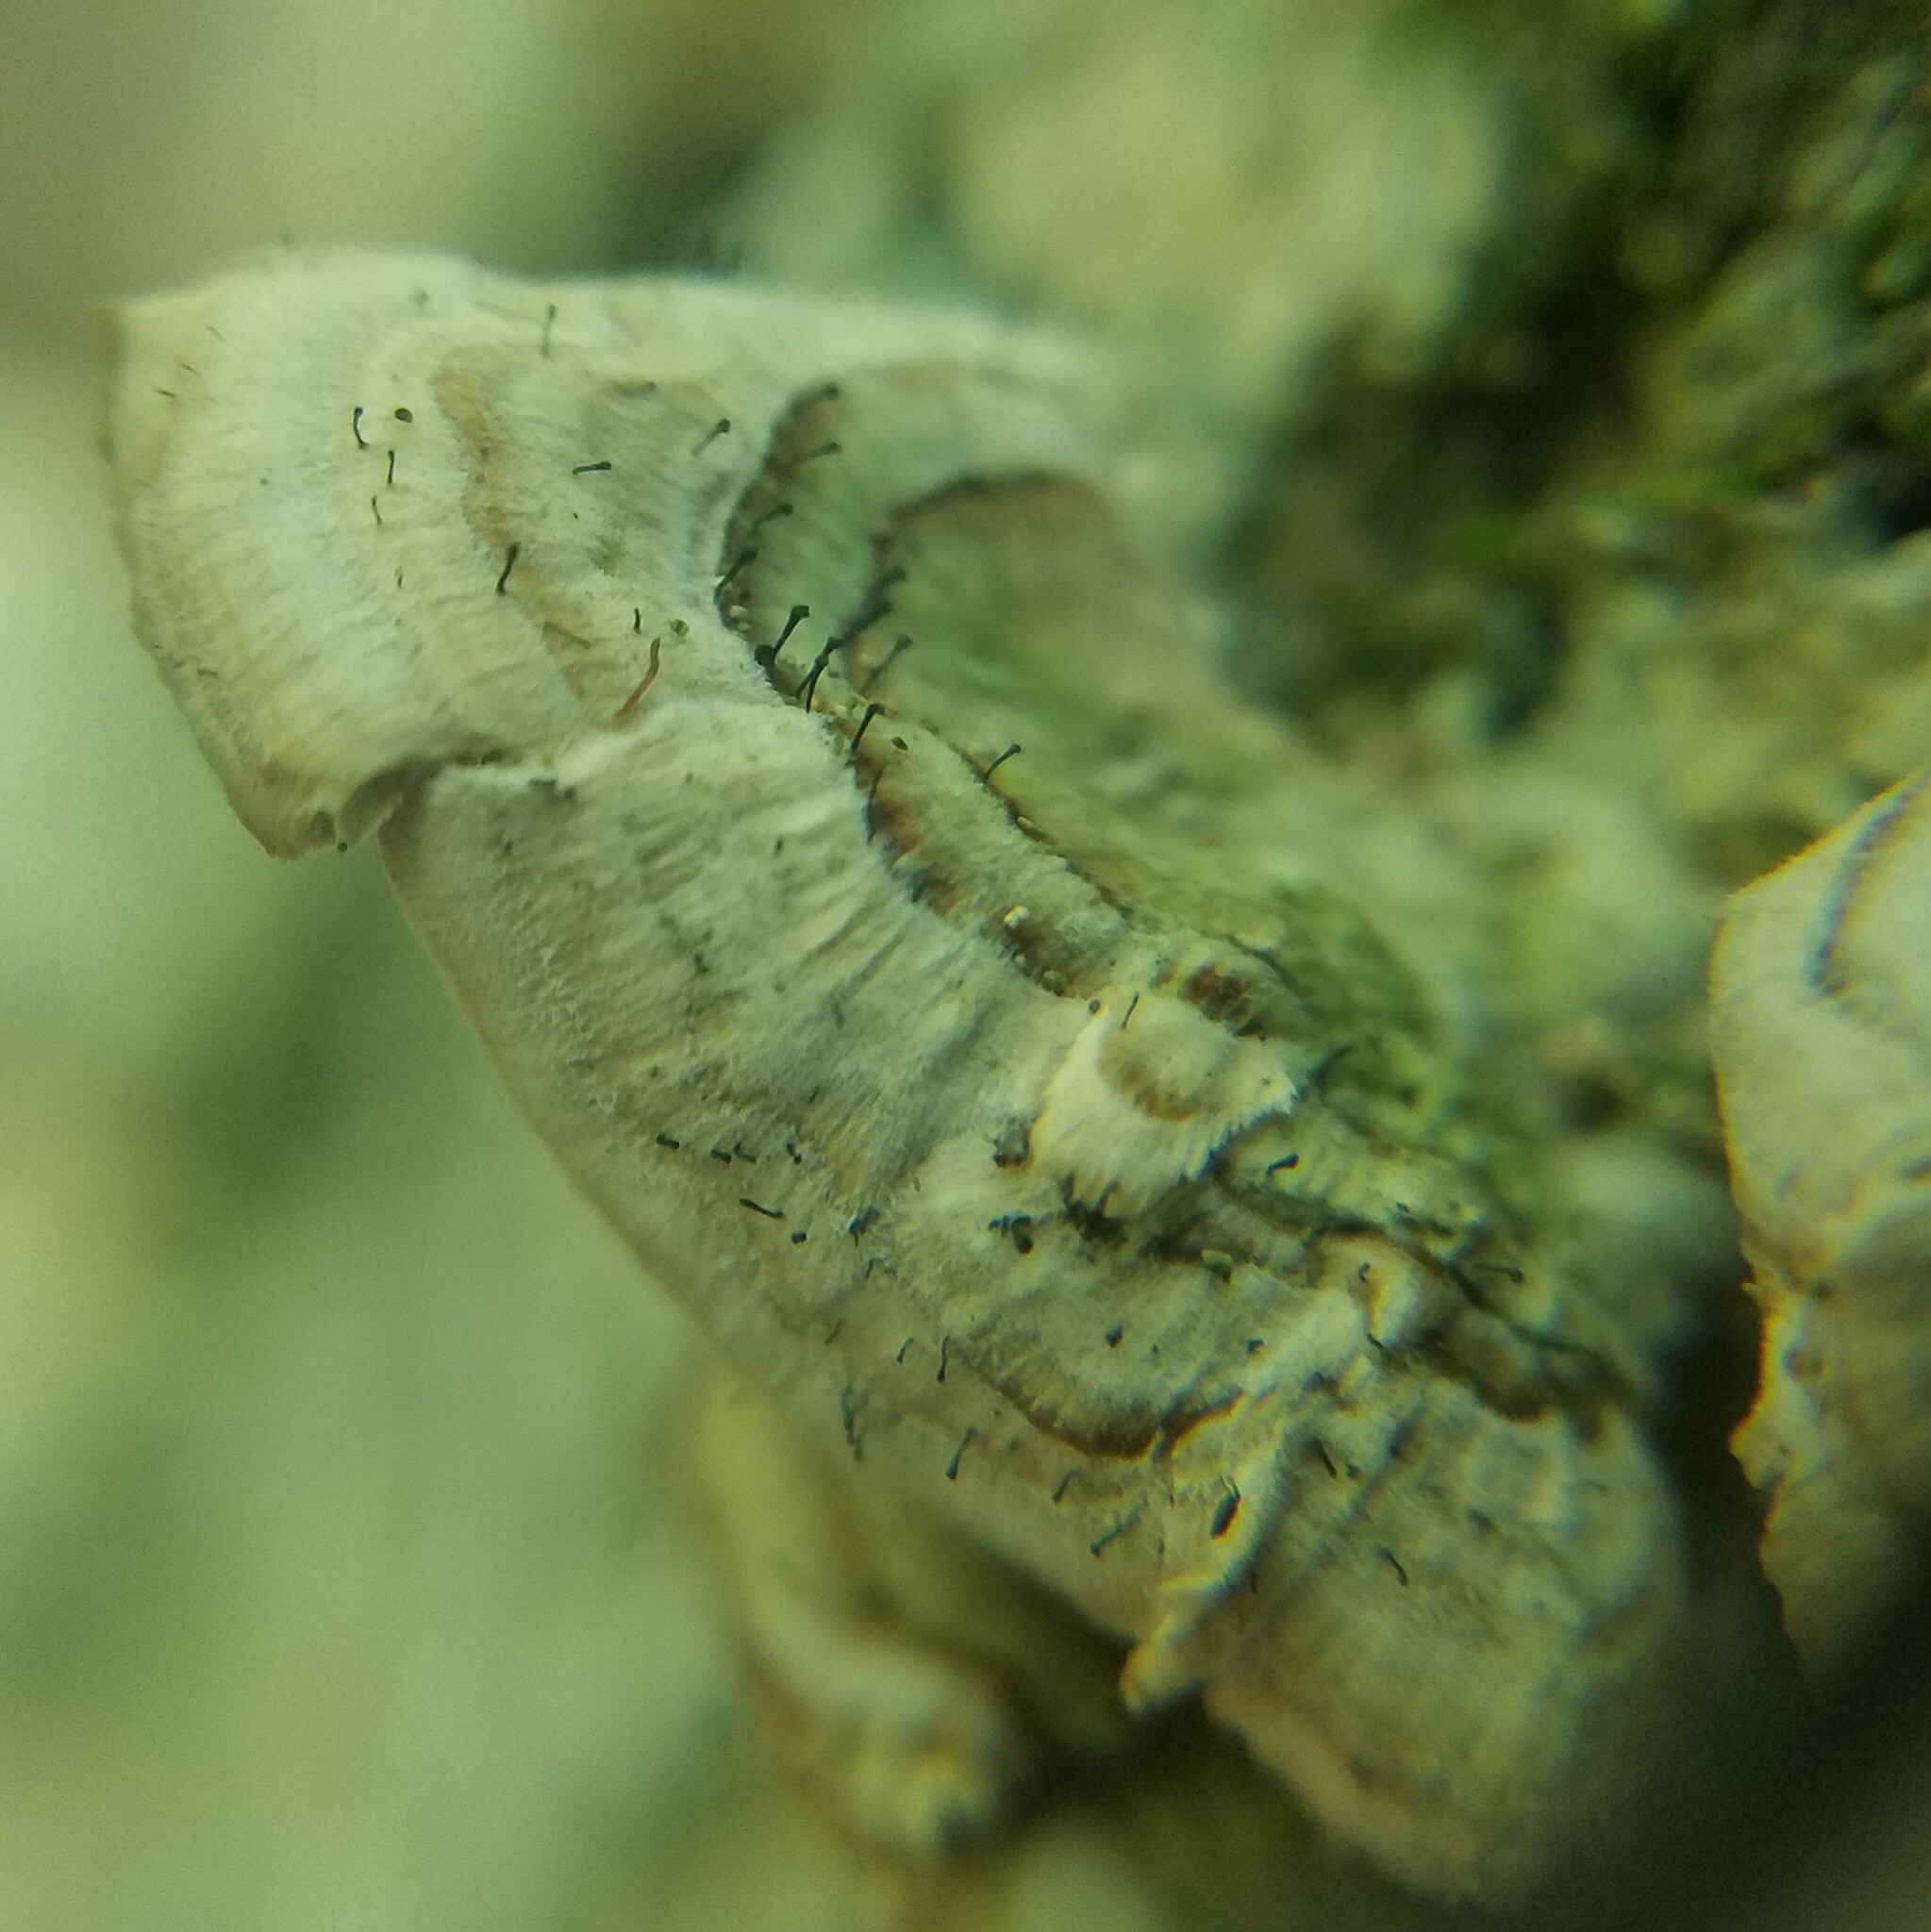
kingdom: Fungi
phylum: Ascomycota
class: Eurotiomycetes
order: Mycocaliciales
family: Mycocaliciaceae
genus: Phaeocalicium
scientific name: Phaeocalicium polyporaeum
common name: Fairy pins
